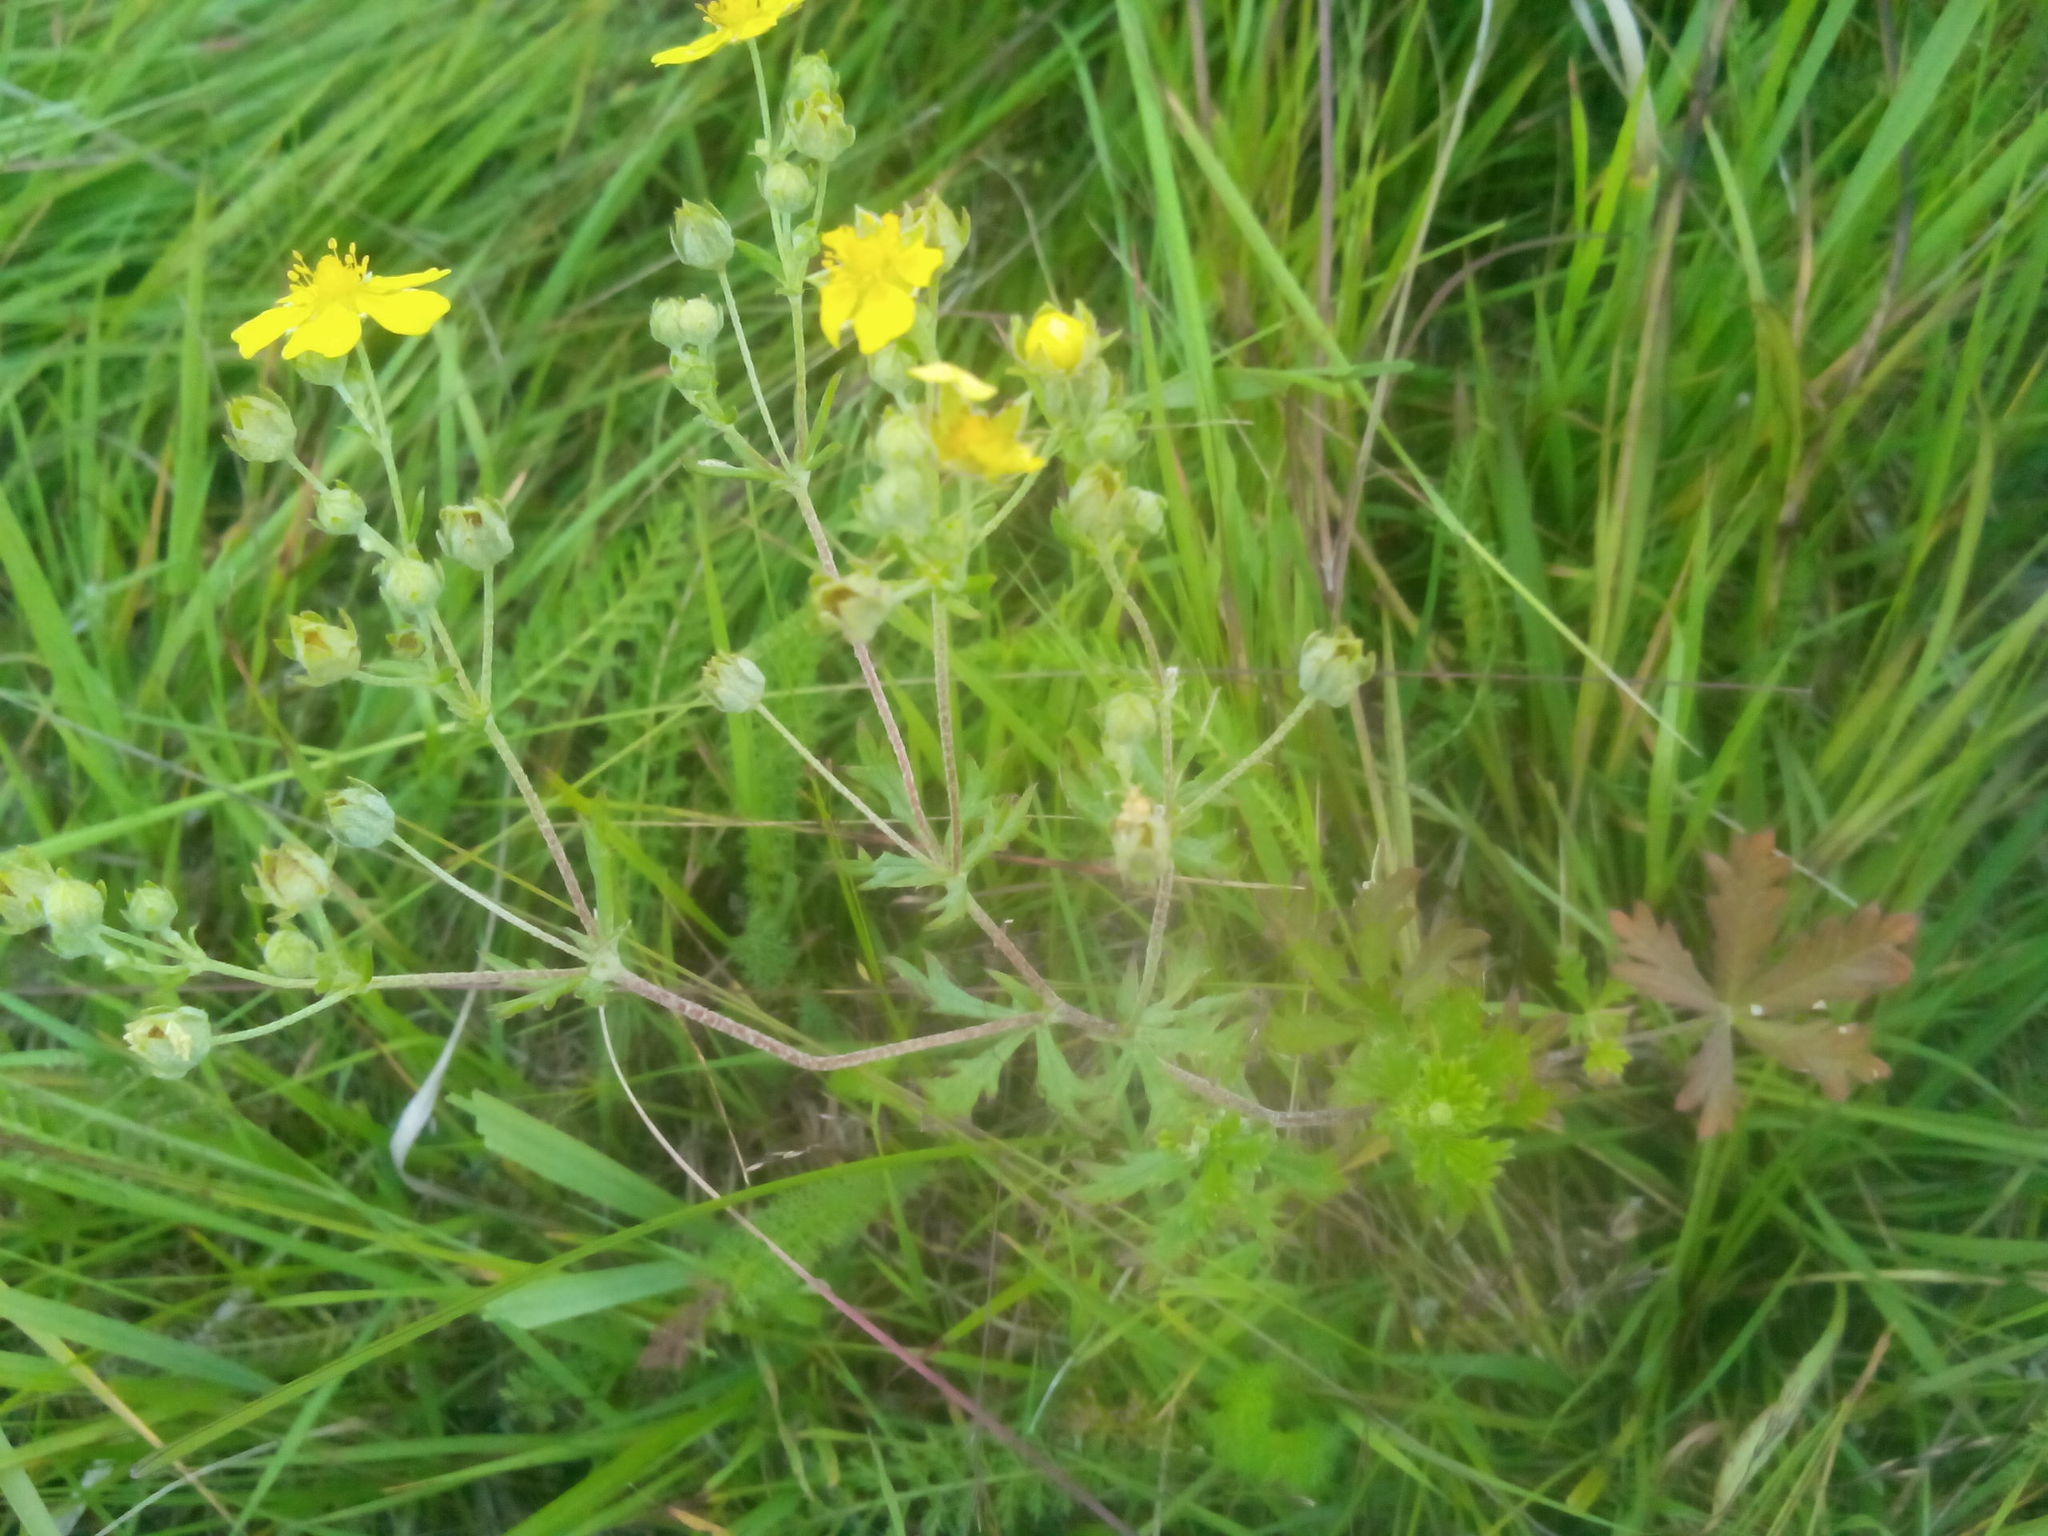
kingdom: Plantae
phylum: Tracheophyta
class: Magnoliopsida
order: Rosales
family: Rosaceae
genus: Potentilla
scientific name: Potentilla argentea
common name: Hoary cinquefoil
